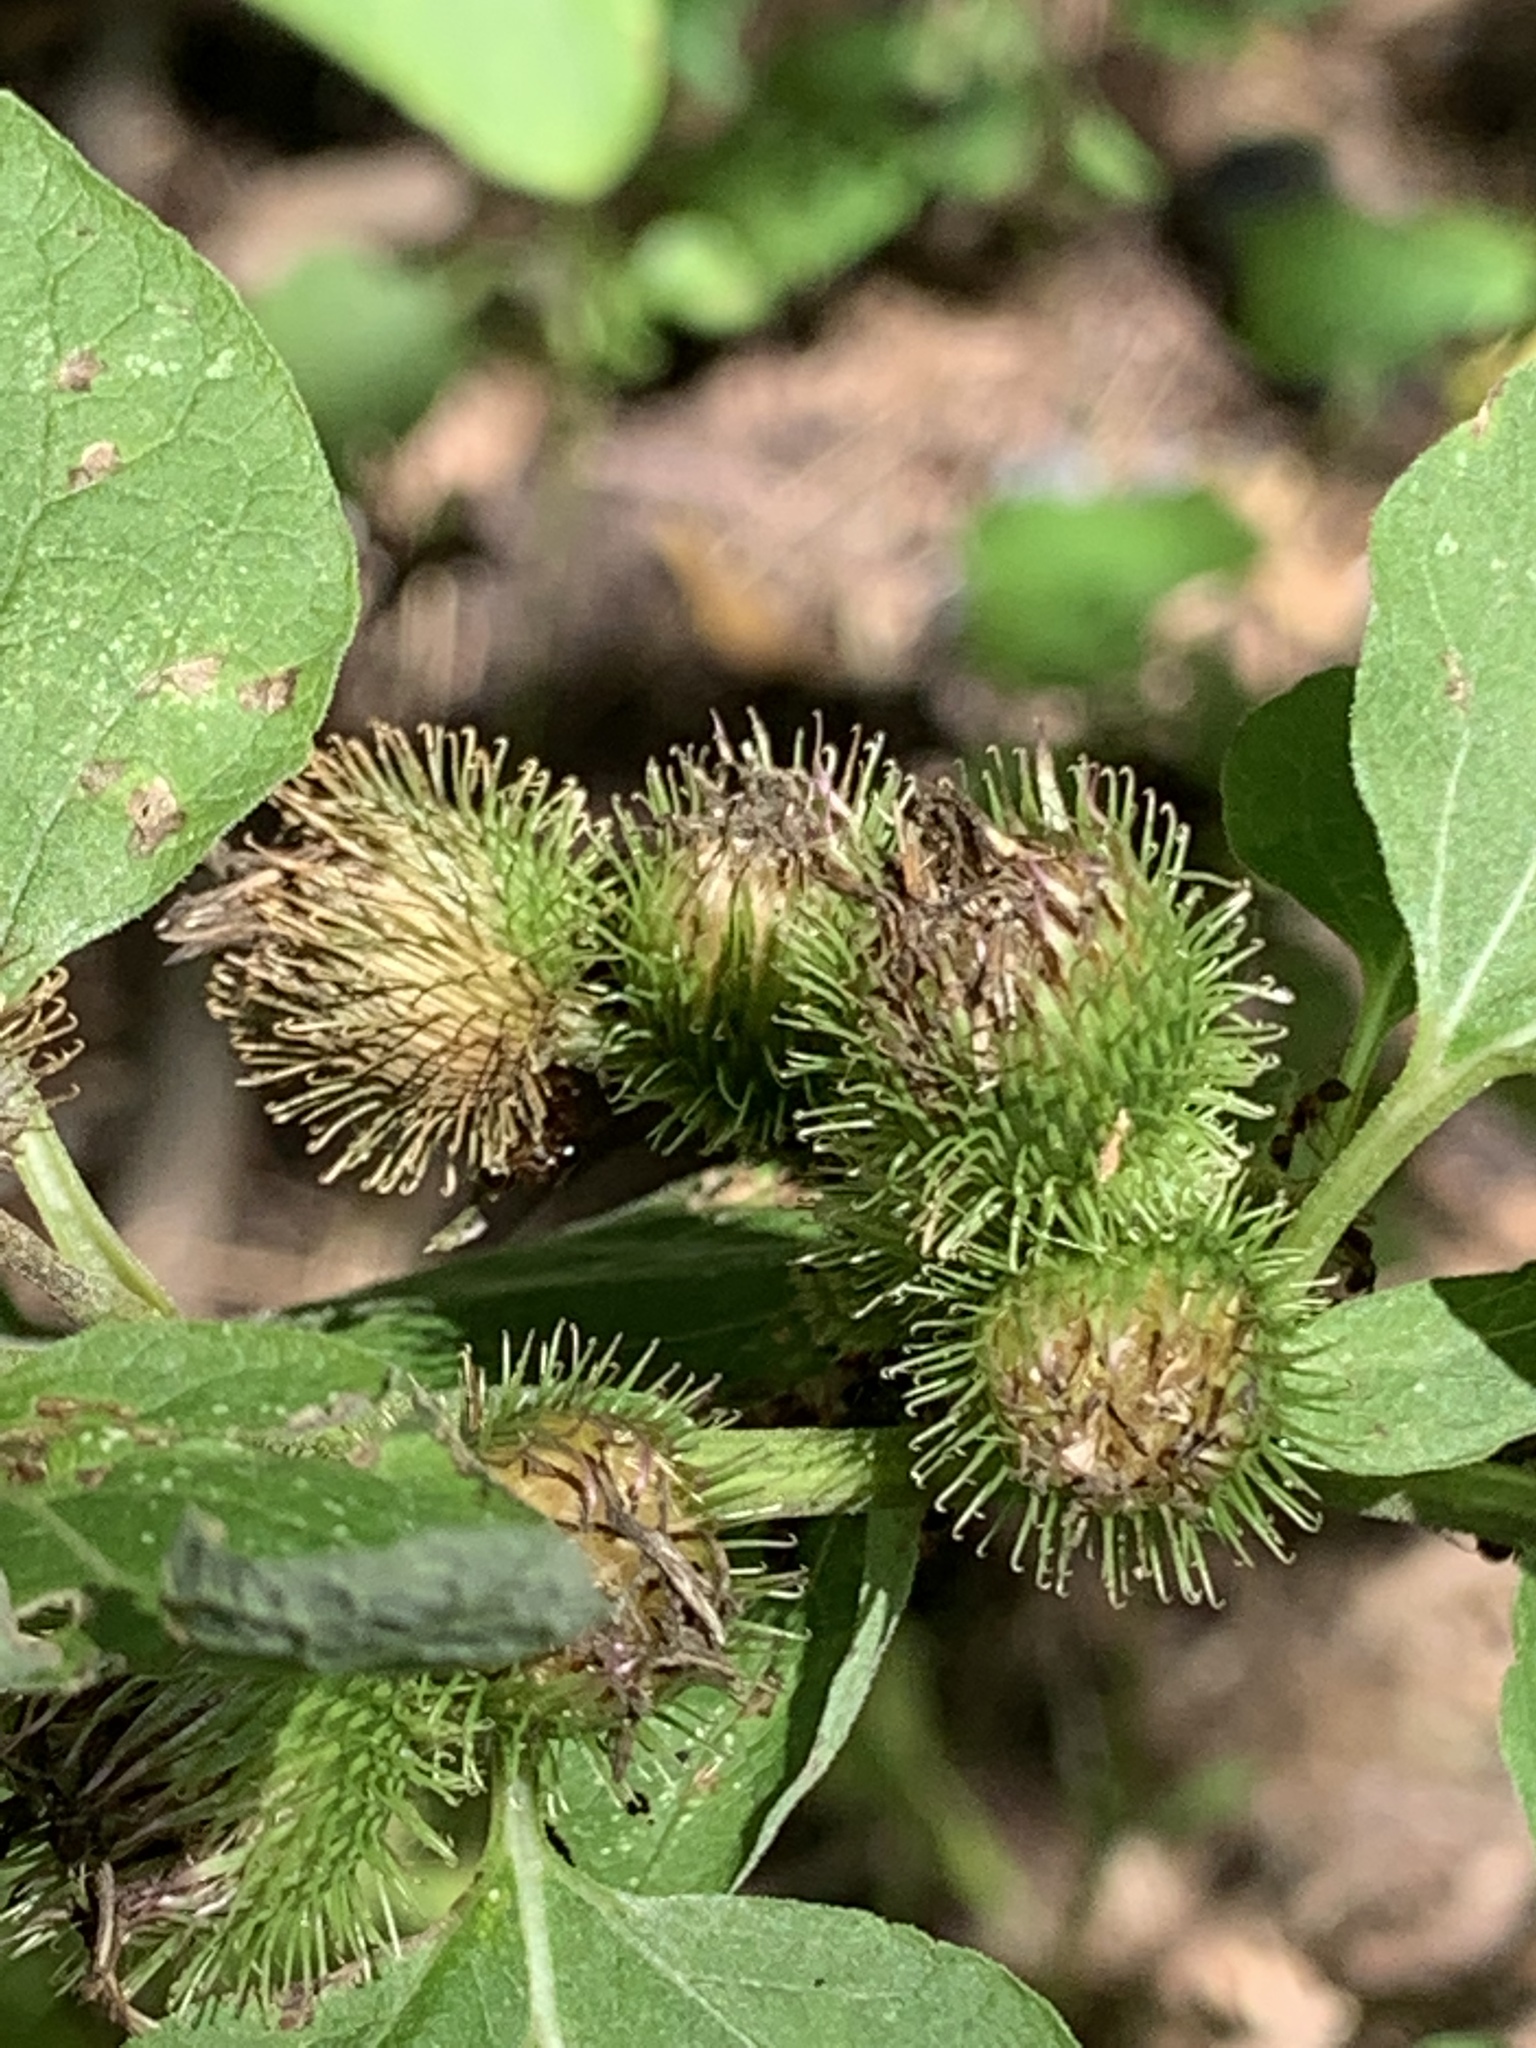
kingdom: Plantae
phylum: Tracheophyta
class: Magnoliopsida
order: Asterales
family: Asteraceae
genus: Arctium
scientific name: Arctium minus
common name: Lesser burdock
